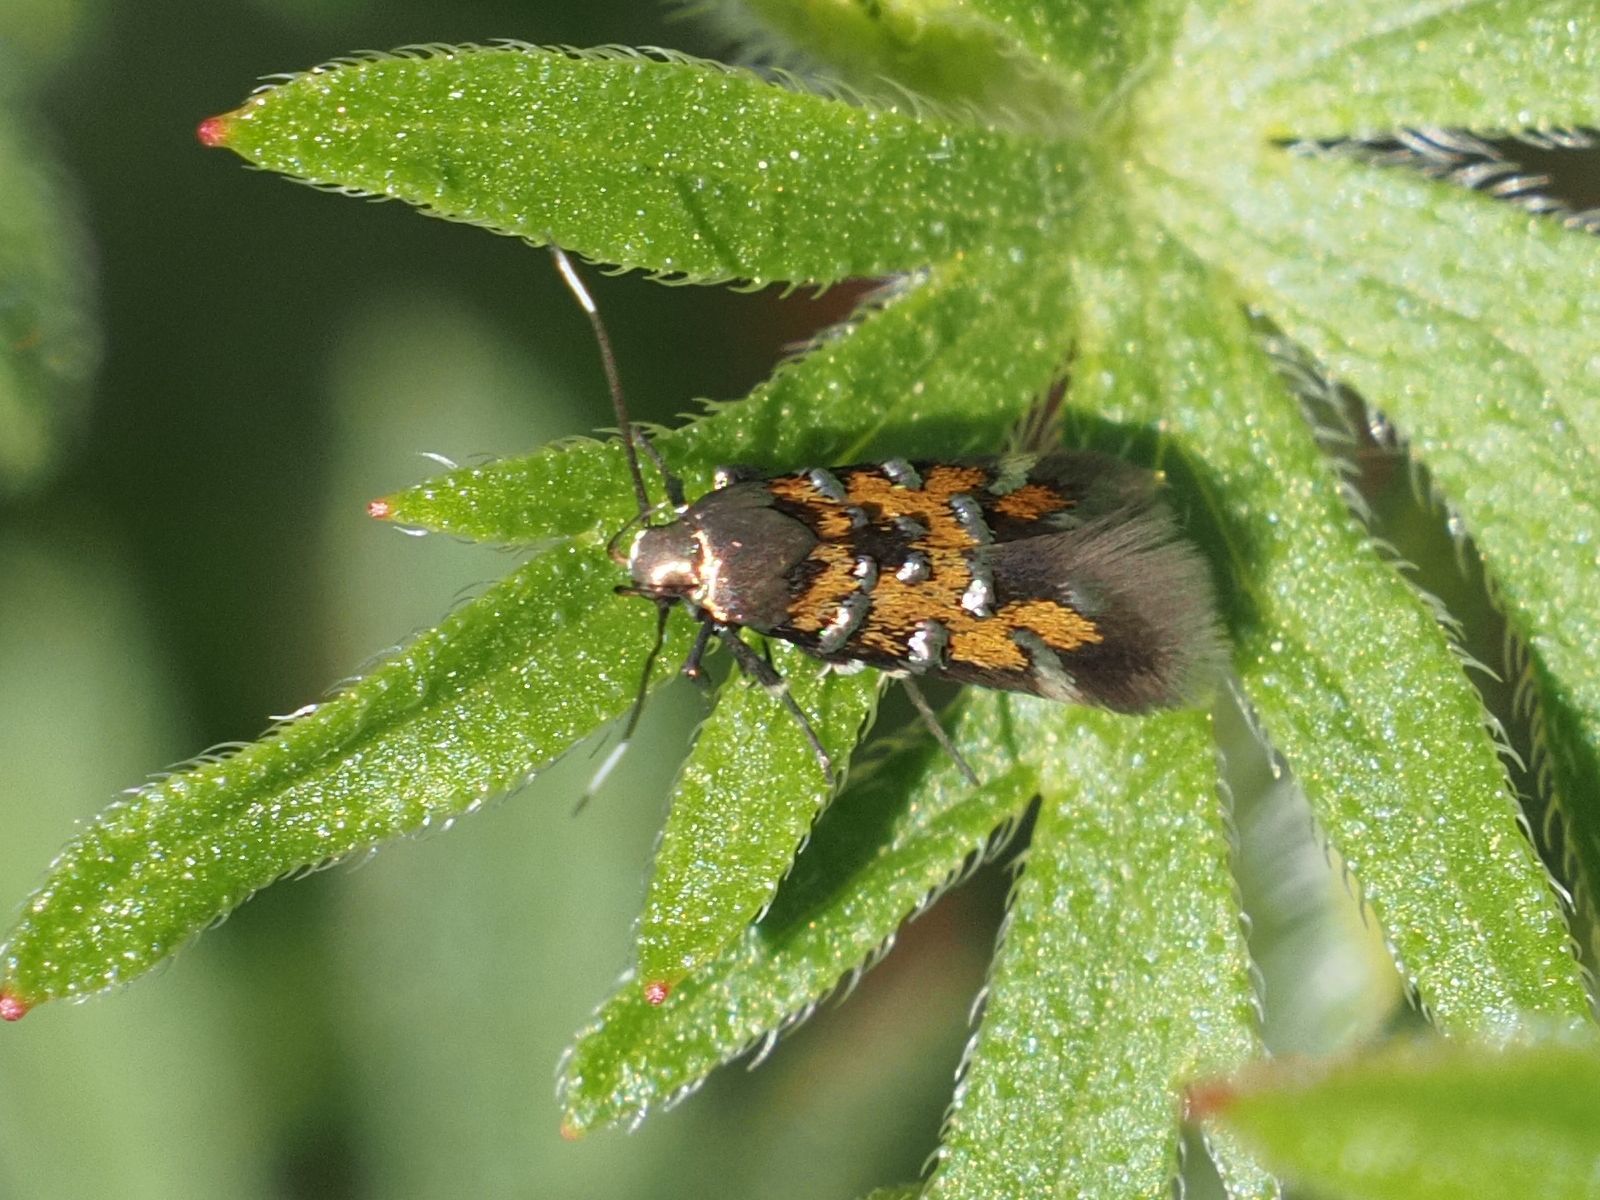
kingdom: Animalia
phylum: Arthropoda
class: Insecta
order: Lepidoptera
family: Cosmopterigidae
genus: Pancalia
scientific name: Pancalia leuwenhoekella
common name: Violet cosmet
